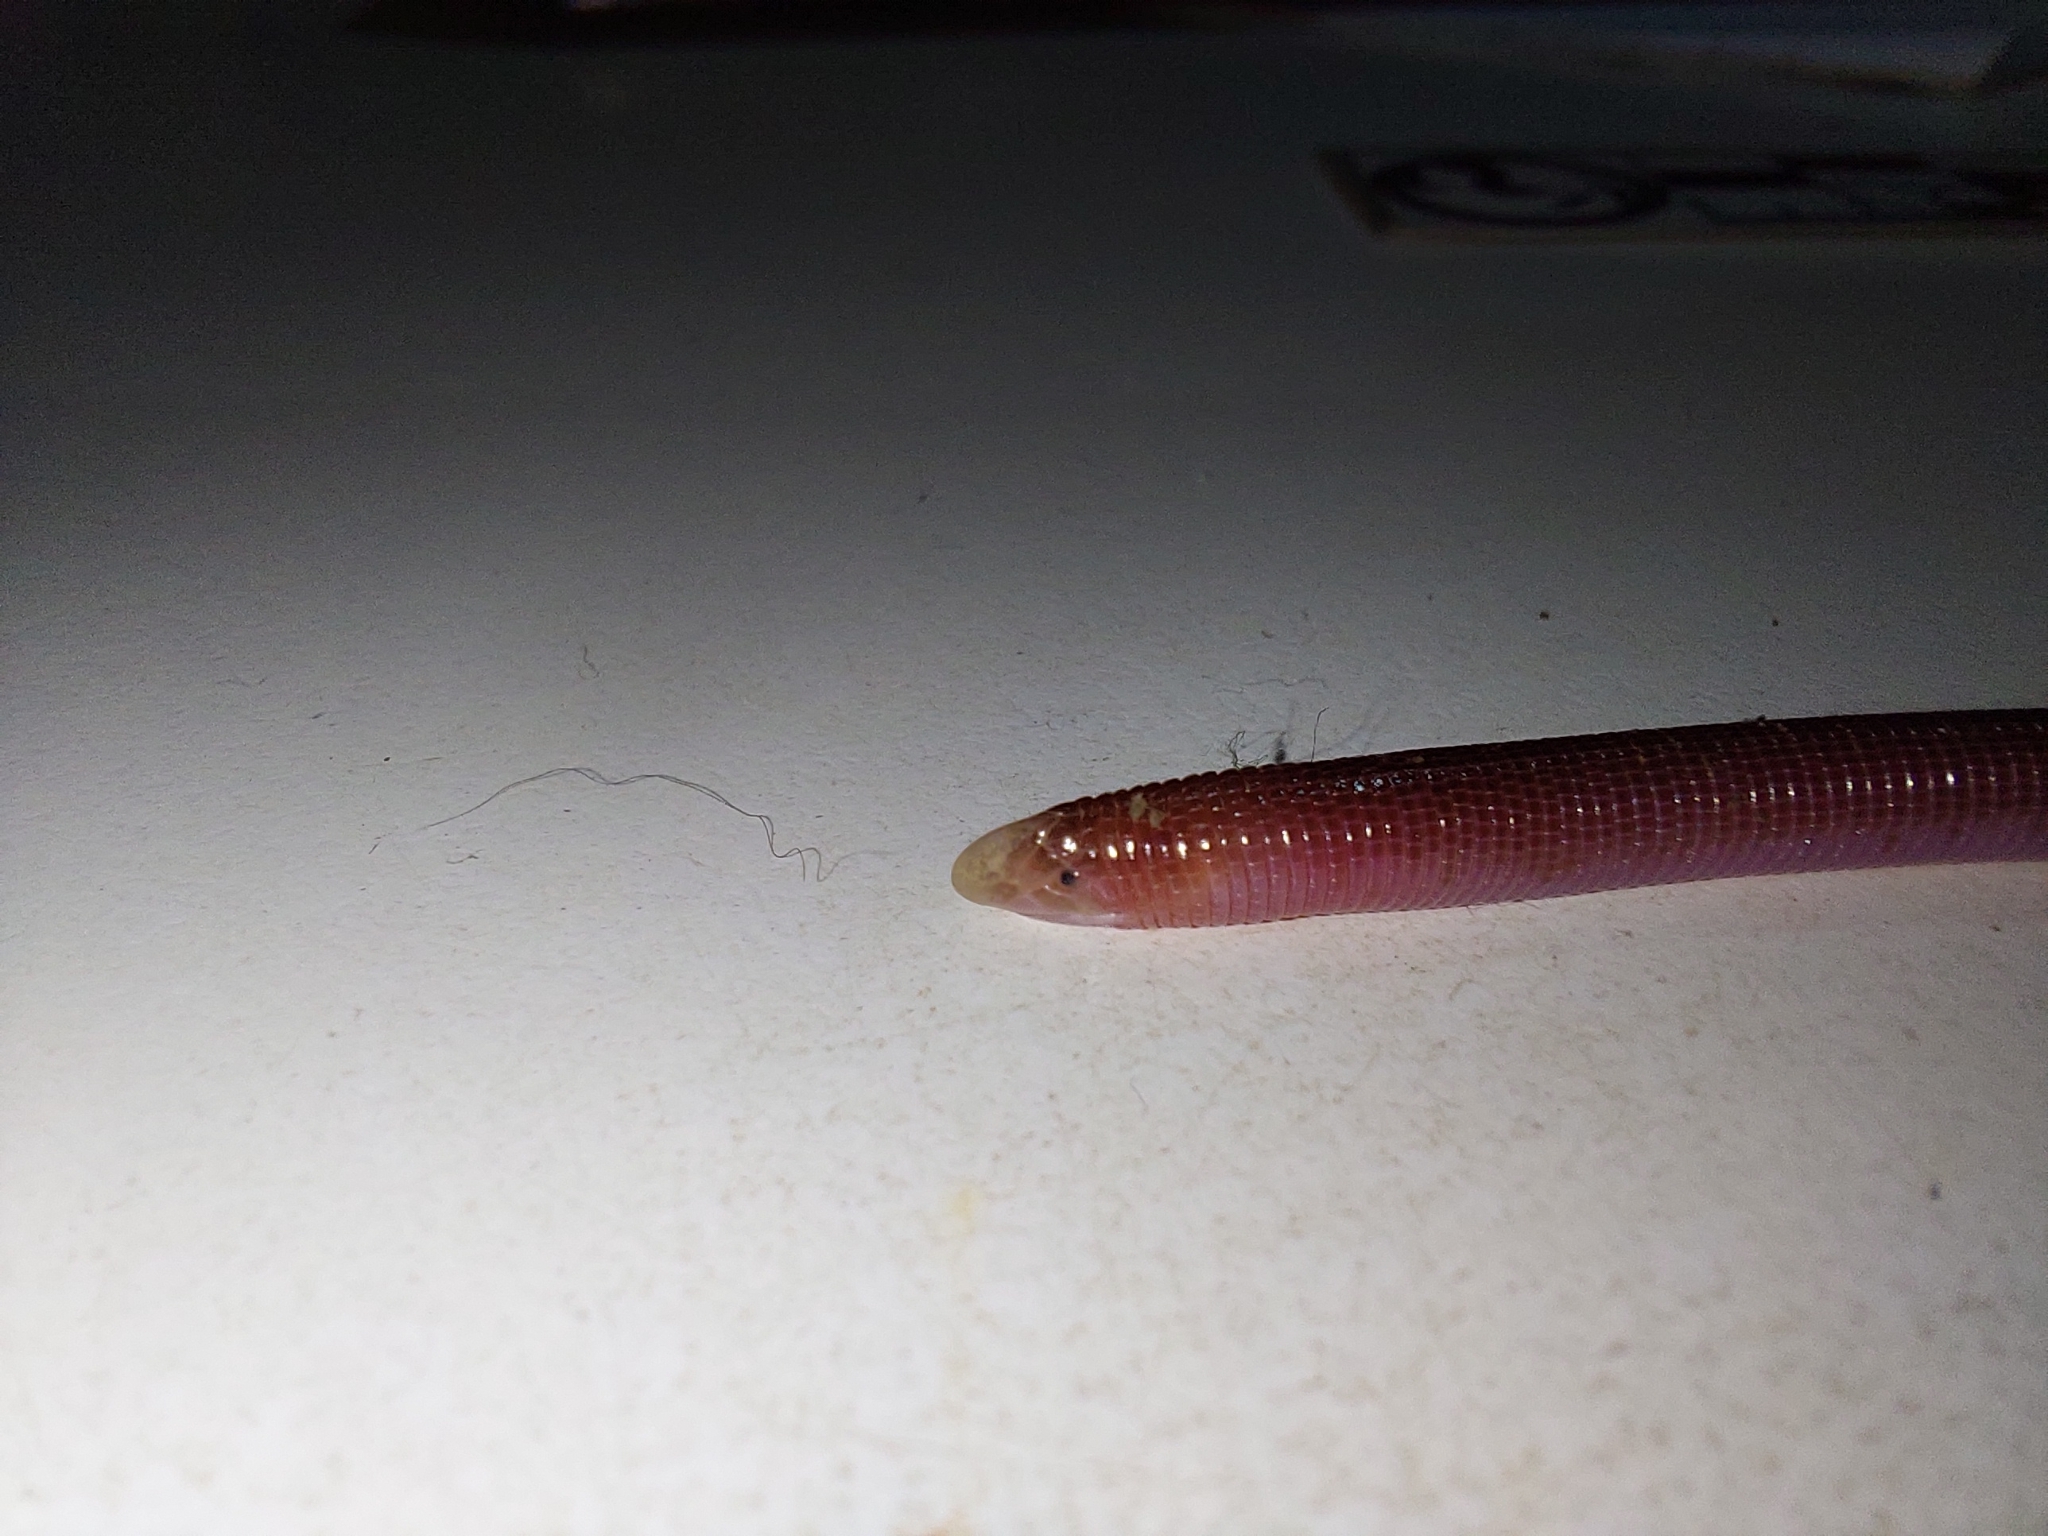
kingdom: Animalia
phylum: Chordata
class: Squamata
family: Amphisbaenidae
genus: Amphisbaena
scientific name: Amphisbaena kingii
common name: King's worm lizard
